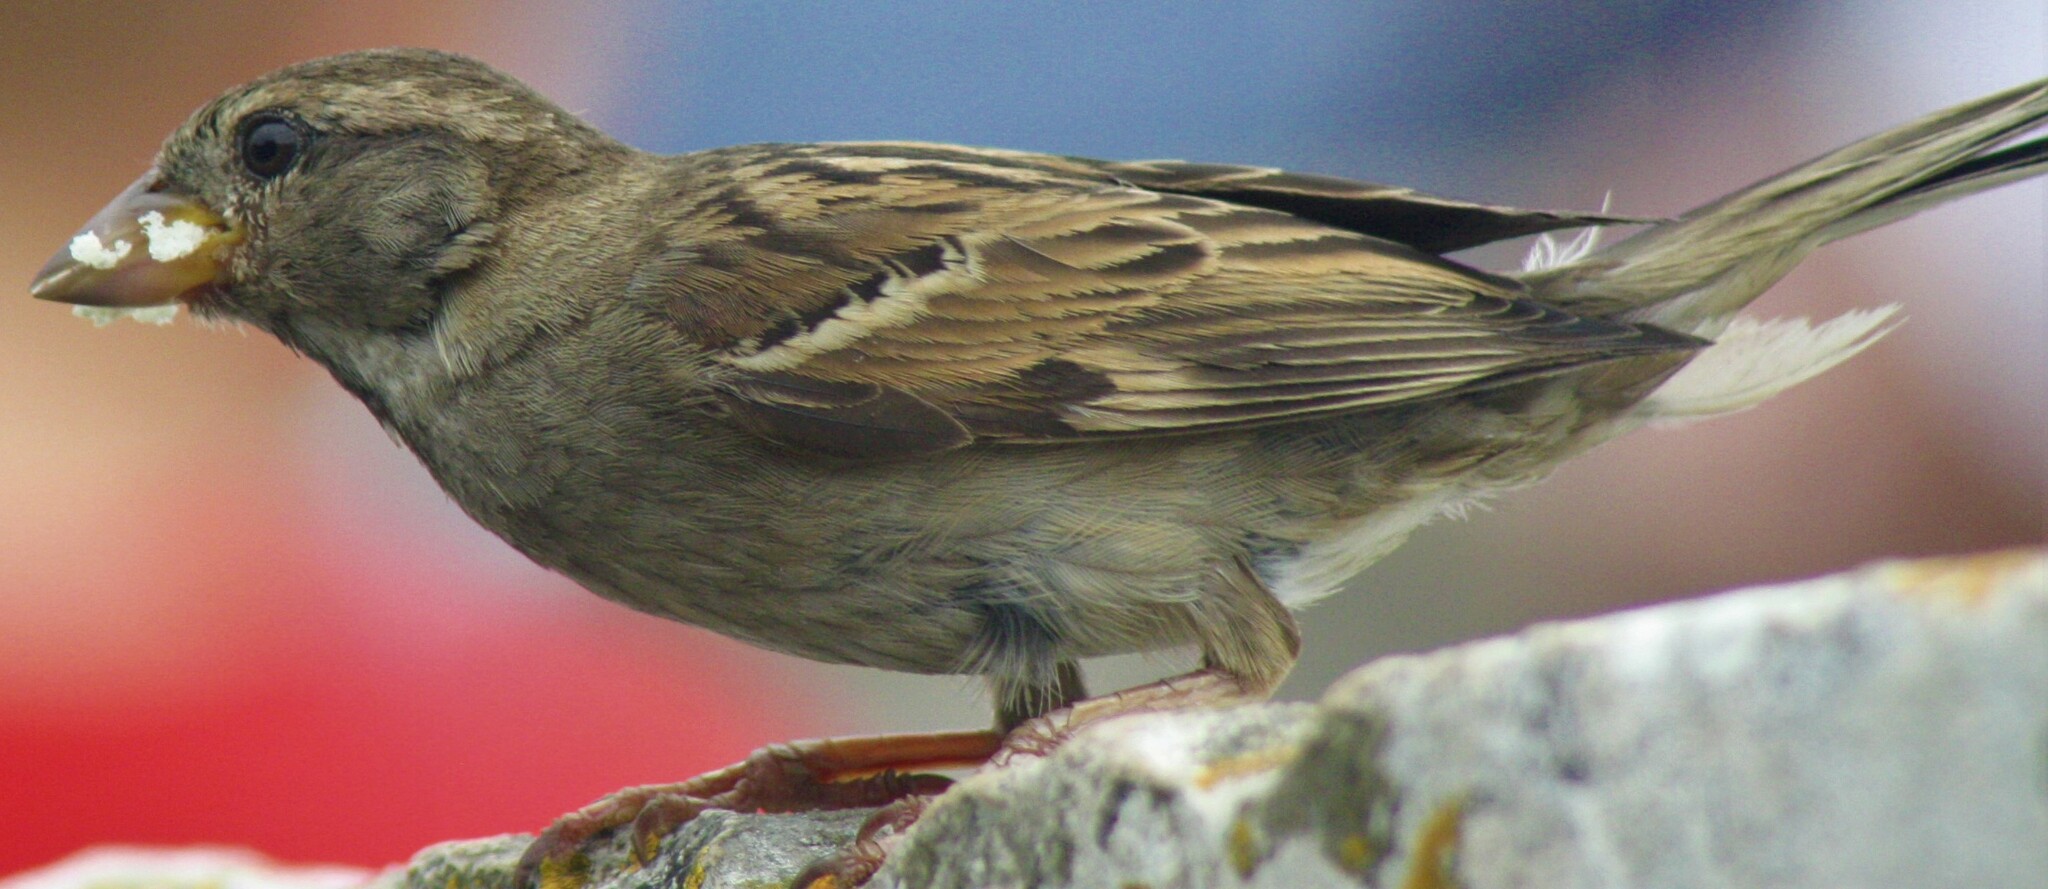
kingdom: Animalia
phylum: Chordata
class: Aves
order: Passeriformes
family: Passeridae
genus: Passer
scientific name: Passer domesticus
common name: House sparrow
